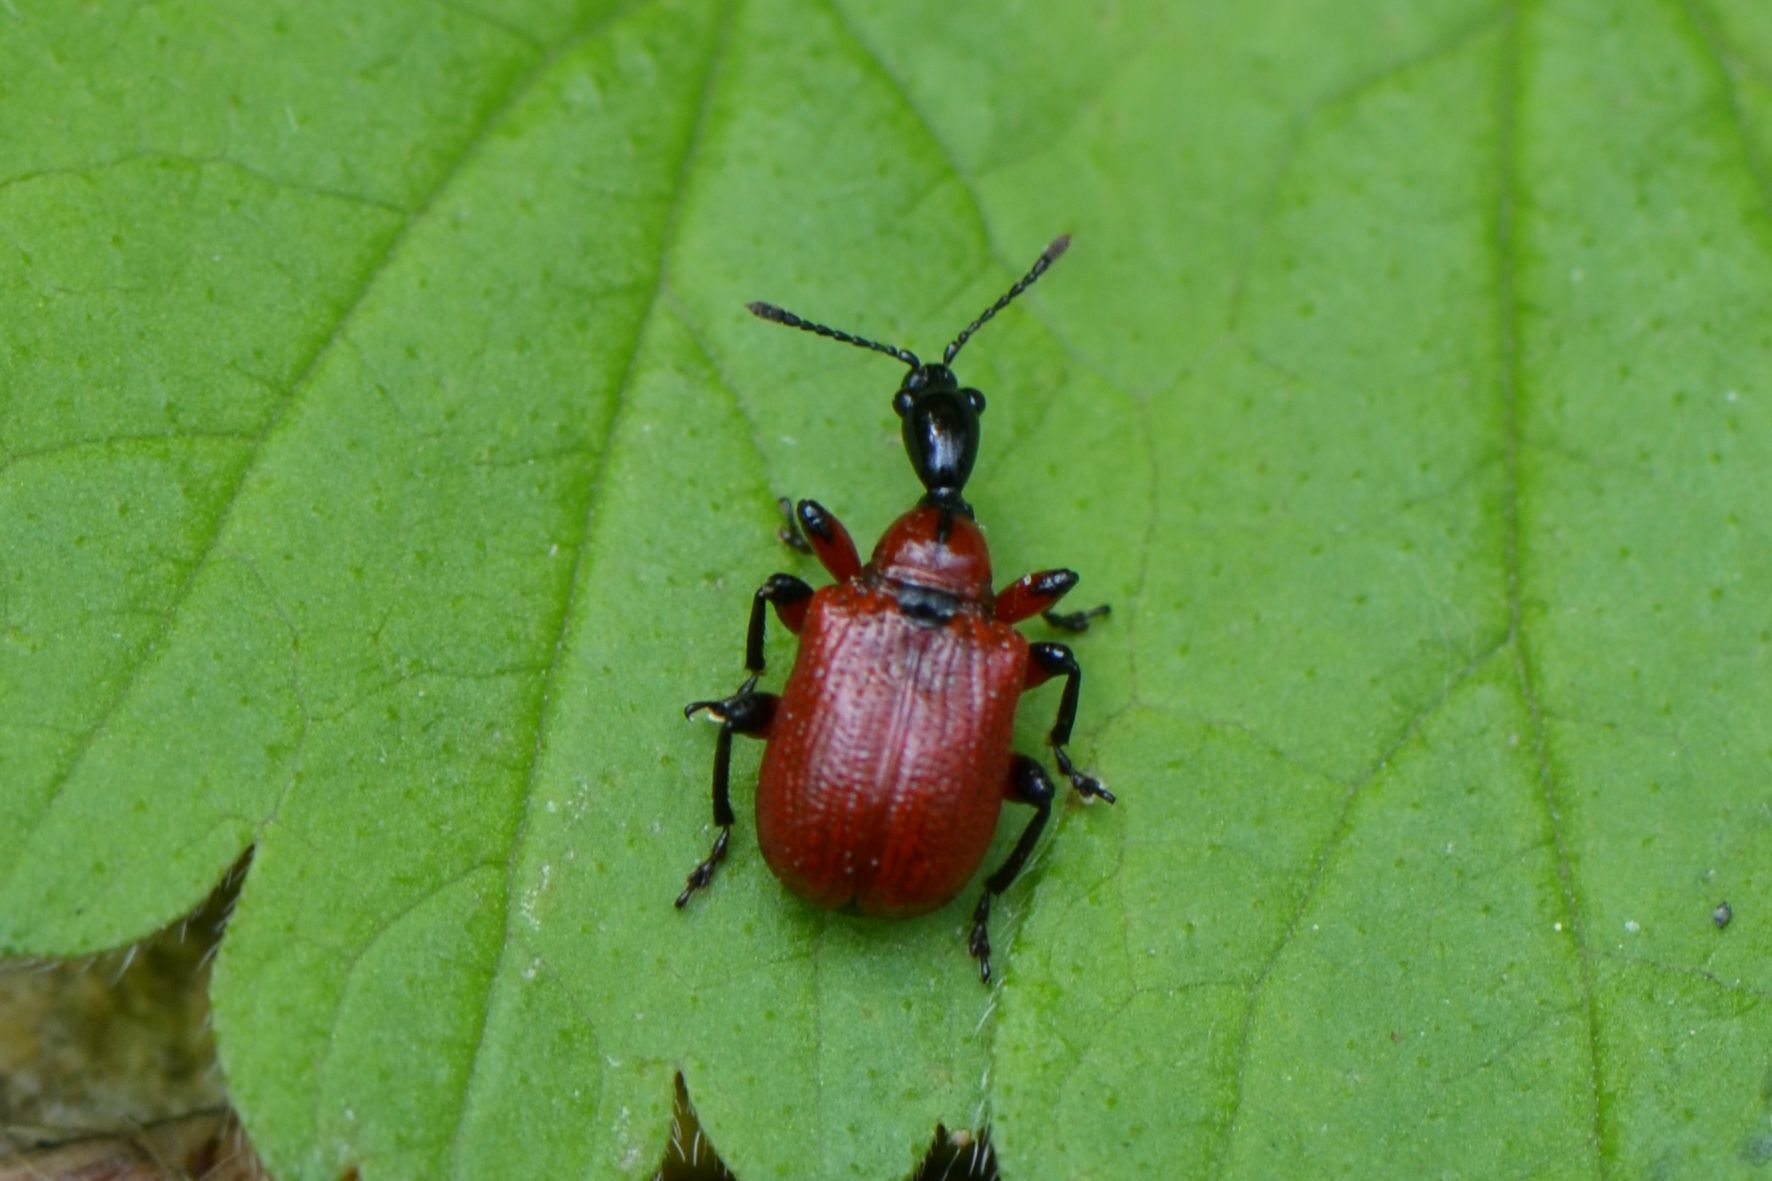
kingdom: Animalia
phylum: Arthropoda
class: Insecta
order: Coleoptera
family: Attelabidae
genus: Apoderus
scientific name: Apoderus coryli
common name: Hazel leaf roller
